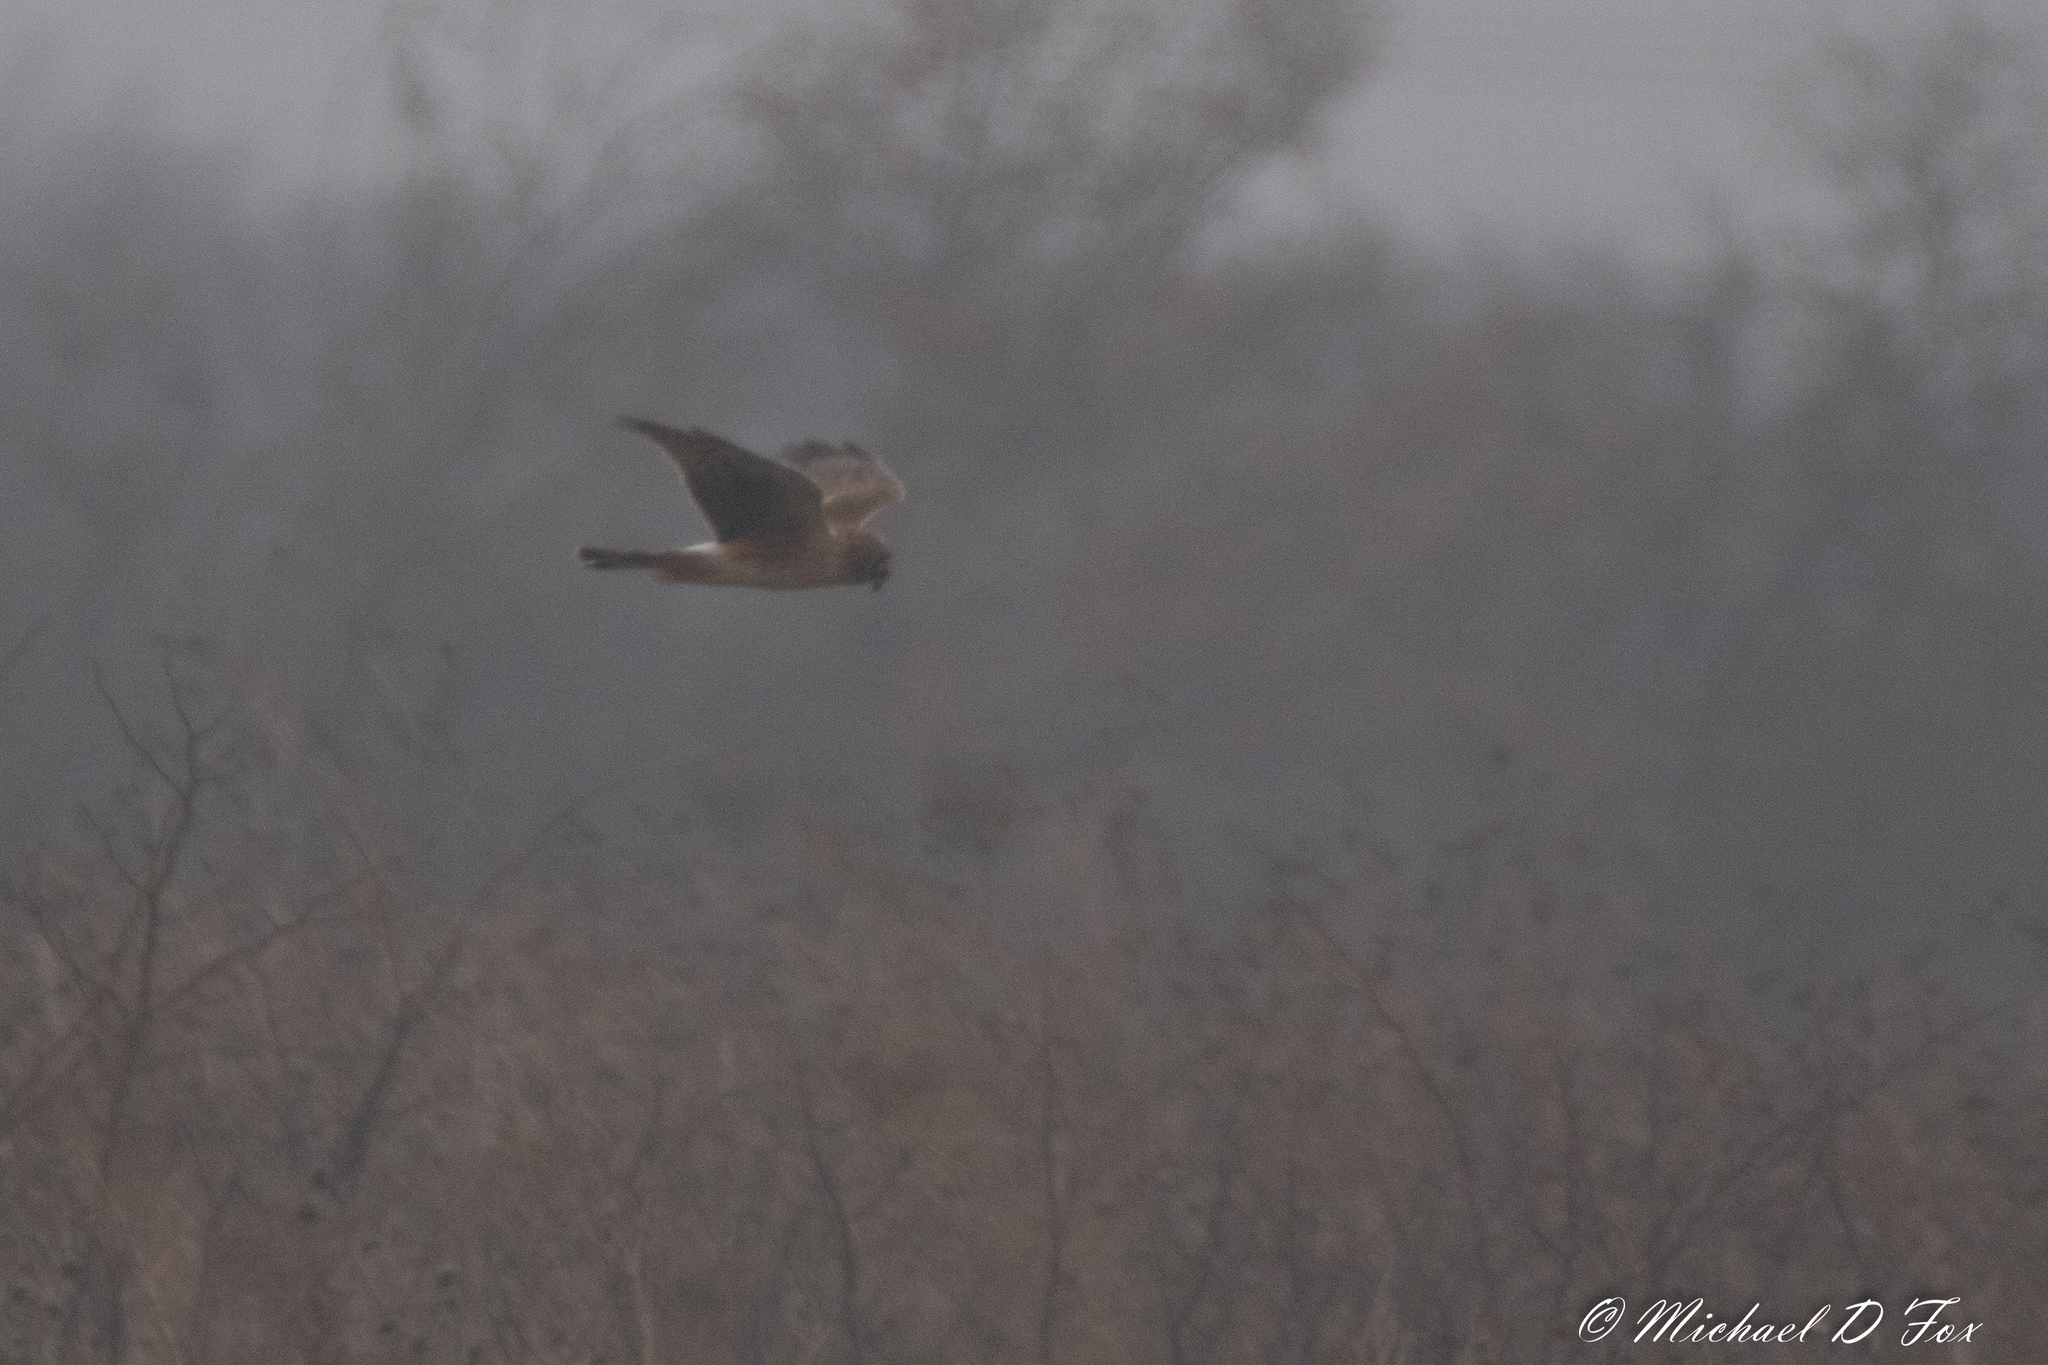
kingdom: Animalia
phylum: Chordata
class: Aves
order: Accipitriformes
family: Accipitridae
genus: Circus
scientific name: Circus cyaneus
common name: Hen harrier
